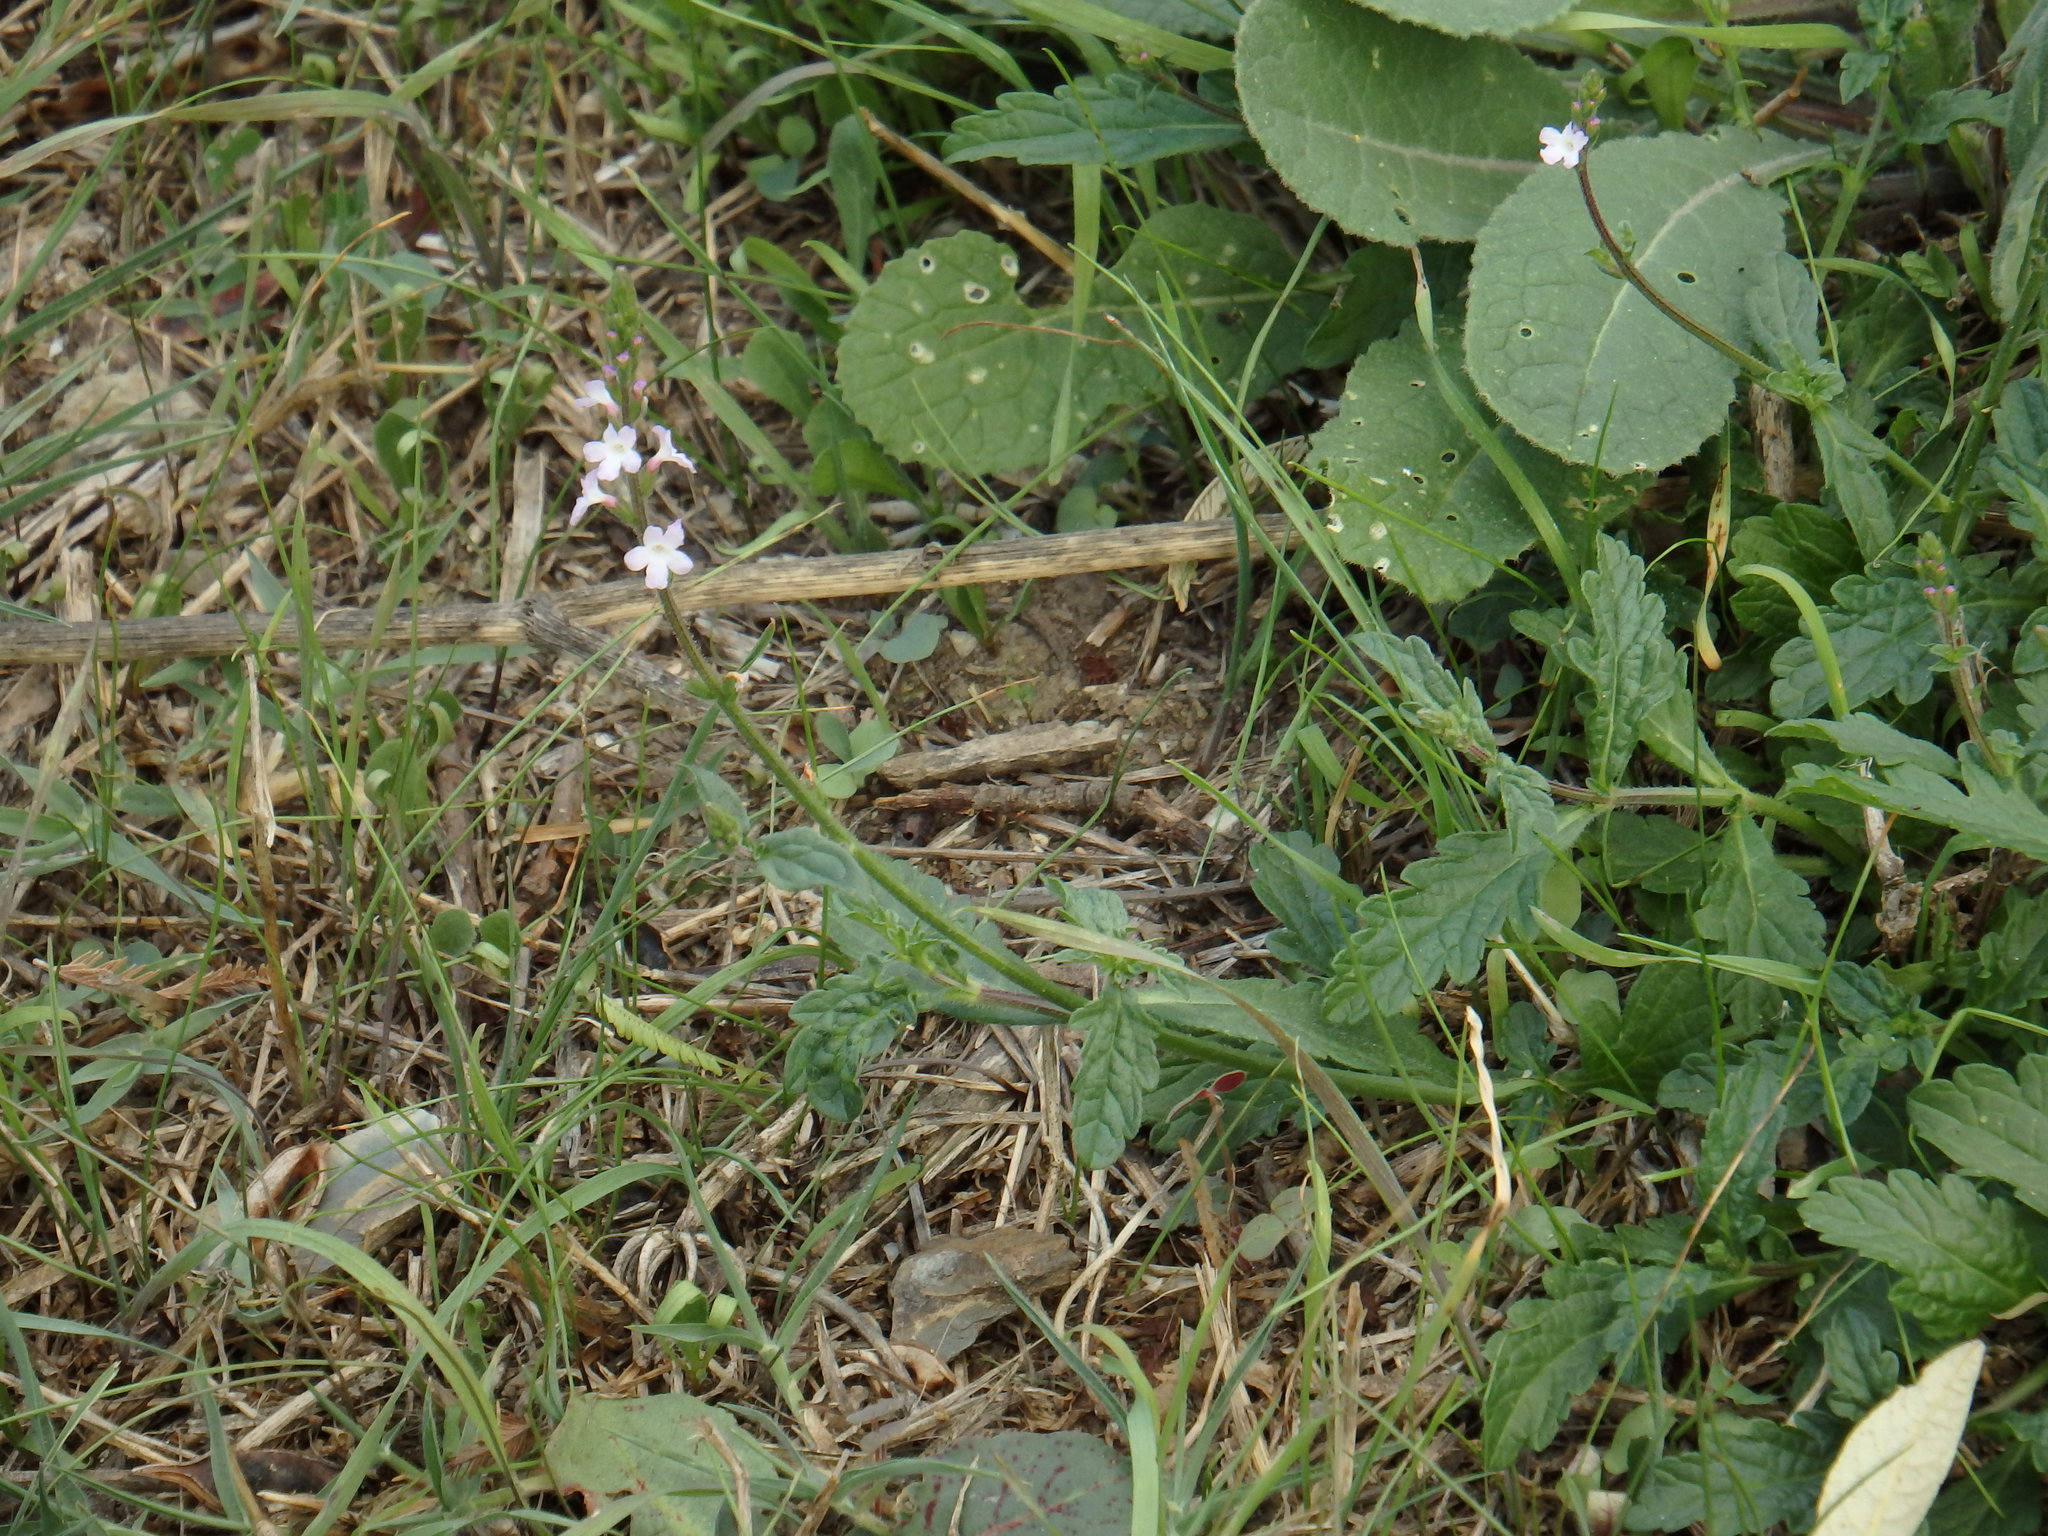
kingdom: Plantae
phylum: Tracheophyta
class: Magnoliopsida
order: Lamiales
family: Verbenaceae
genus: Verbena
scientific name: Verbena officinalis
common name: Vervain
